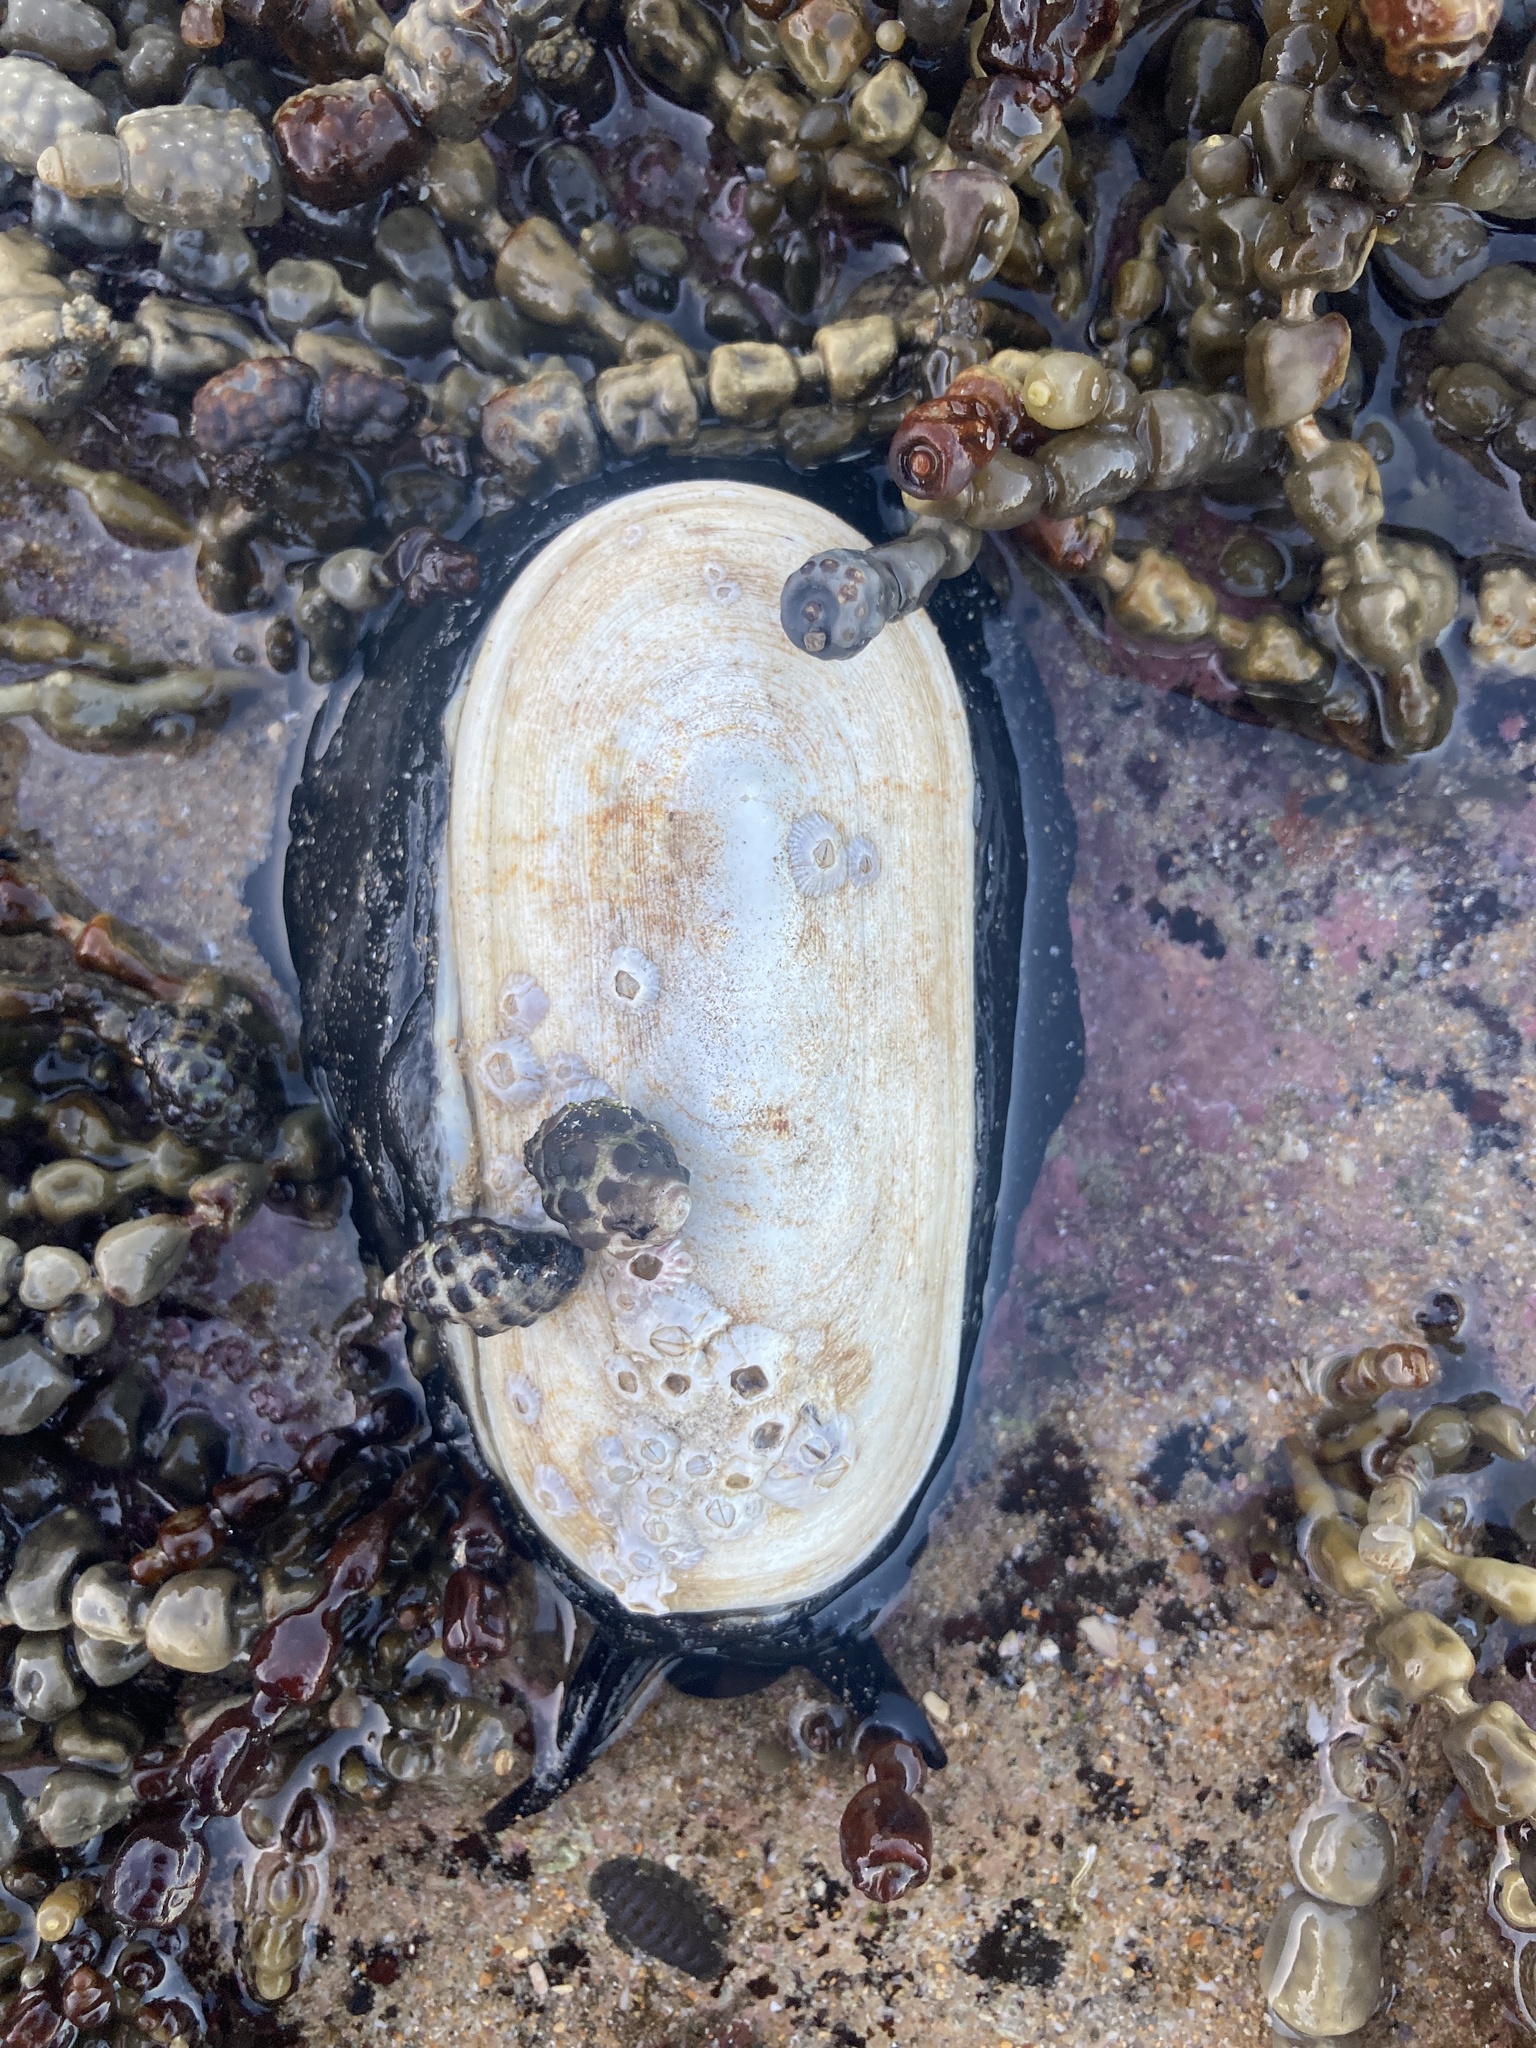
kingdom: Animalia
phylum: Mollusca
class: Gastropoda
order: Lepetellida
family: Fissurellidae
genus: Scutus
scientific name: Scutus antipodes
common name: Duckbill shell
